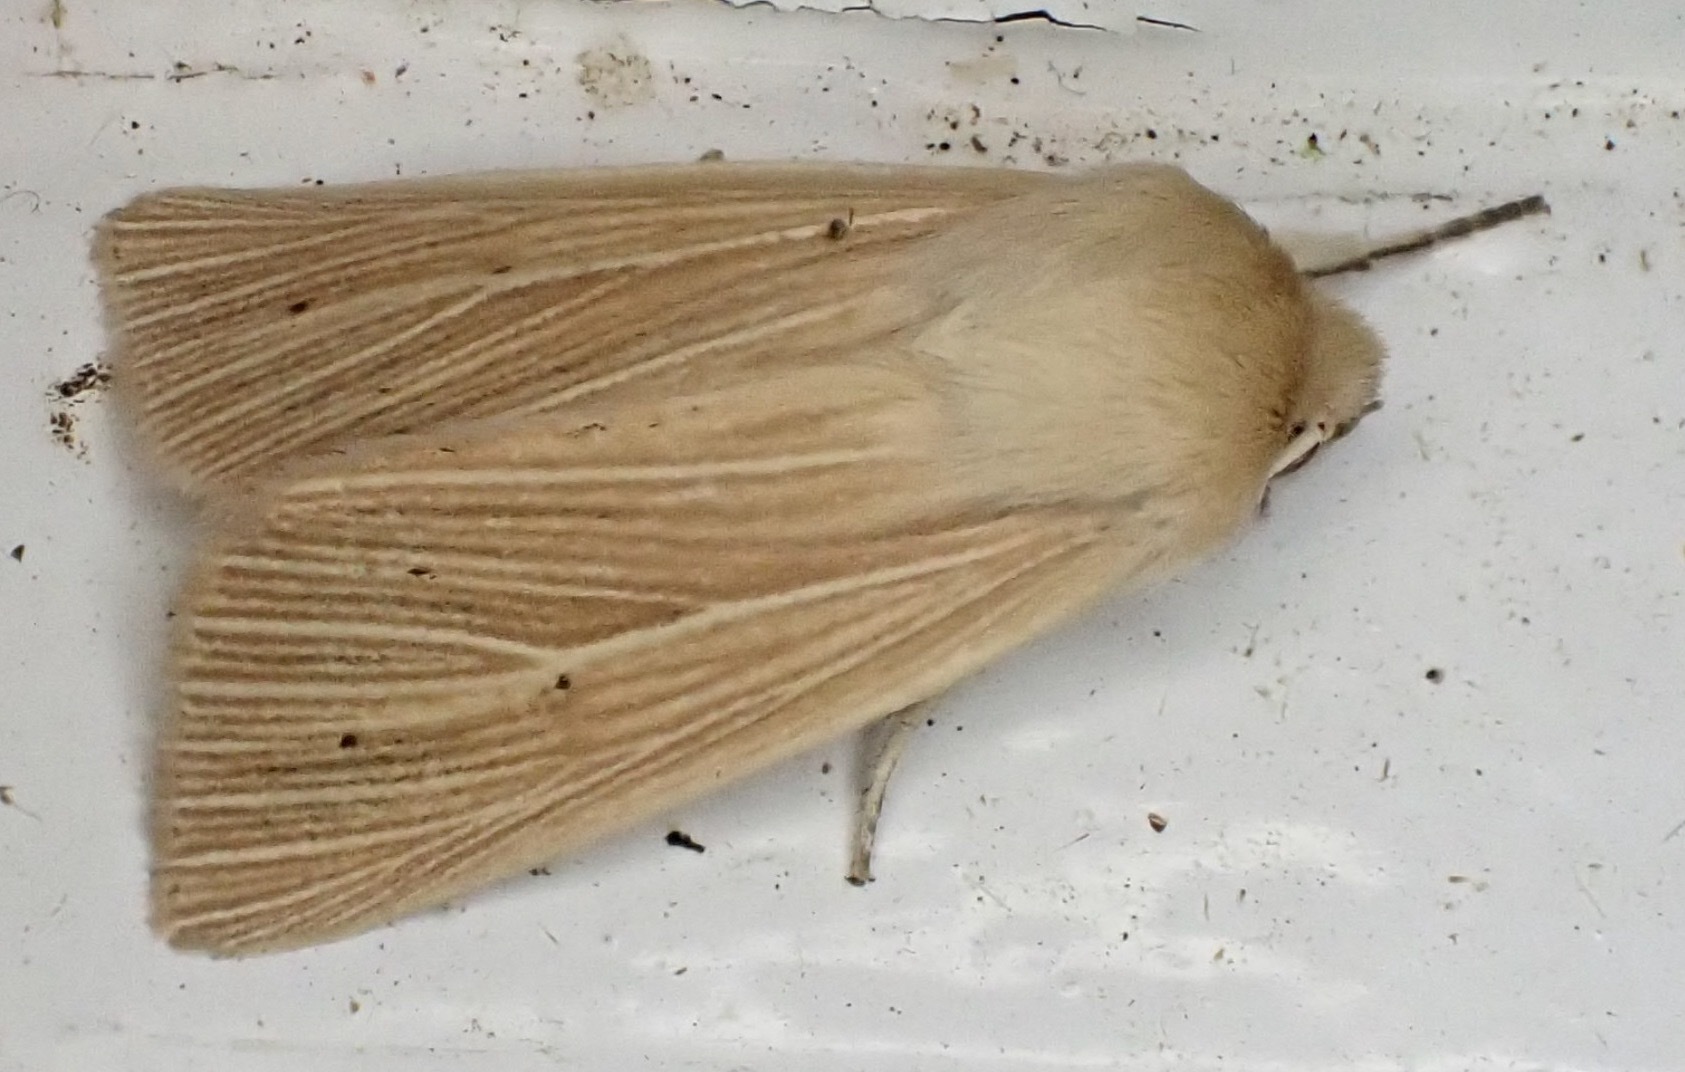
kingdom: Animalia
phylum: Arthropoda
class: Insecta
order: Lepidoptera
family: Noctuidae
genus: Mythimna
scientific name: Mythimna pallens
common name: Common wainscot
